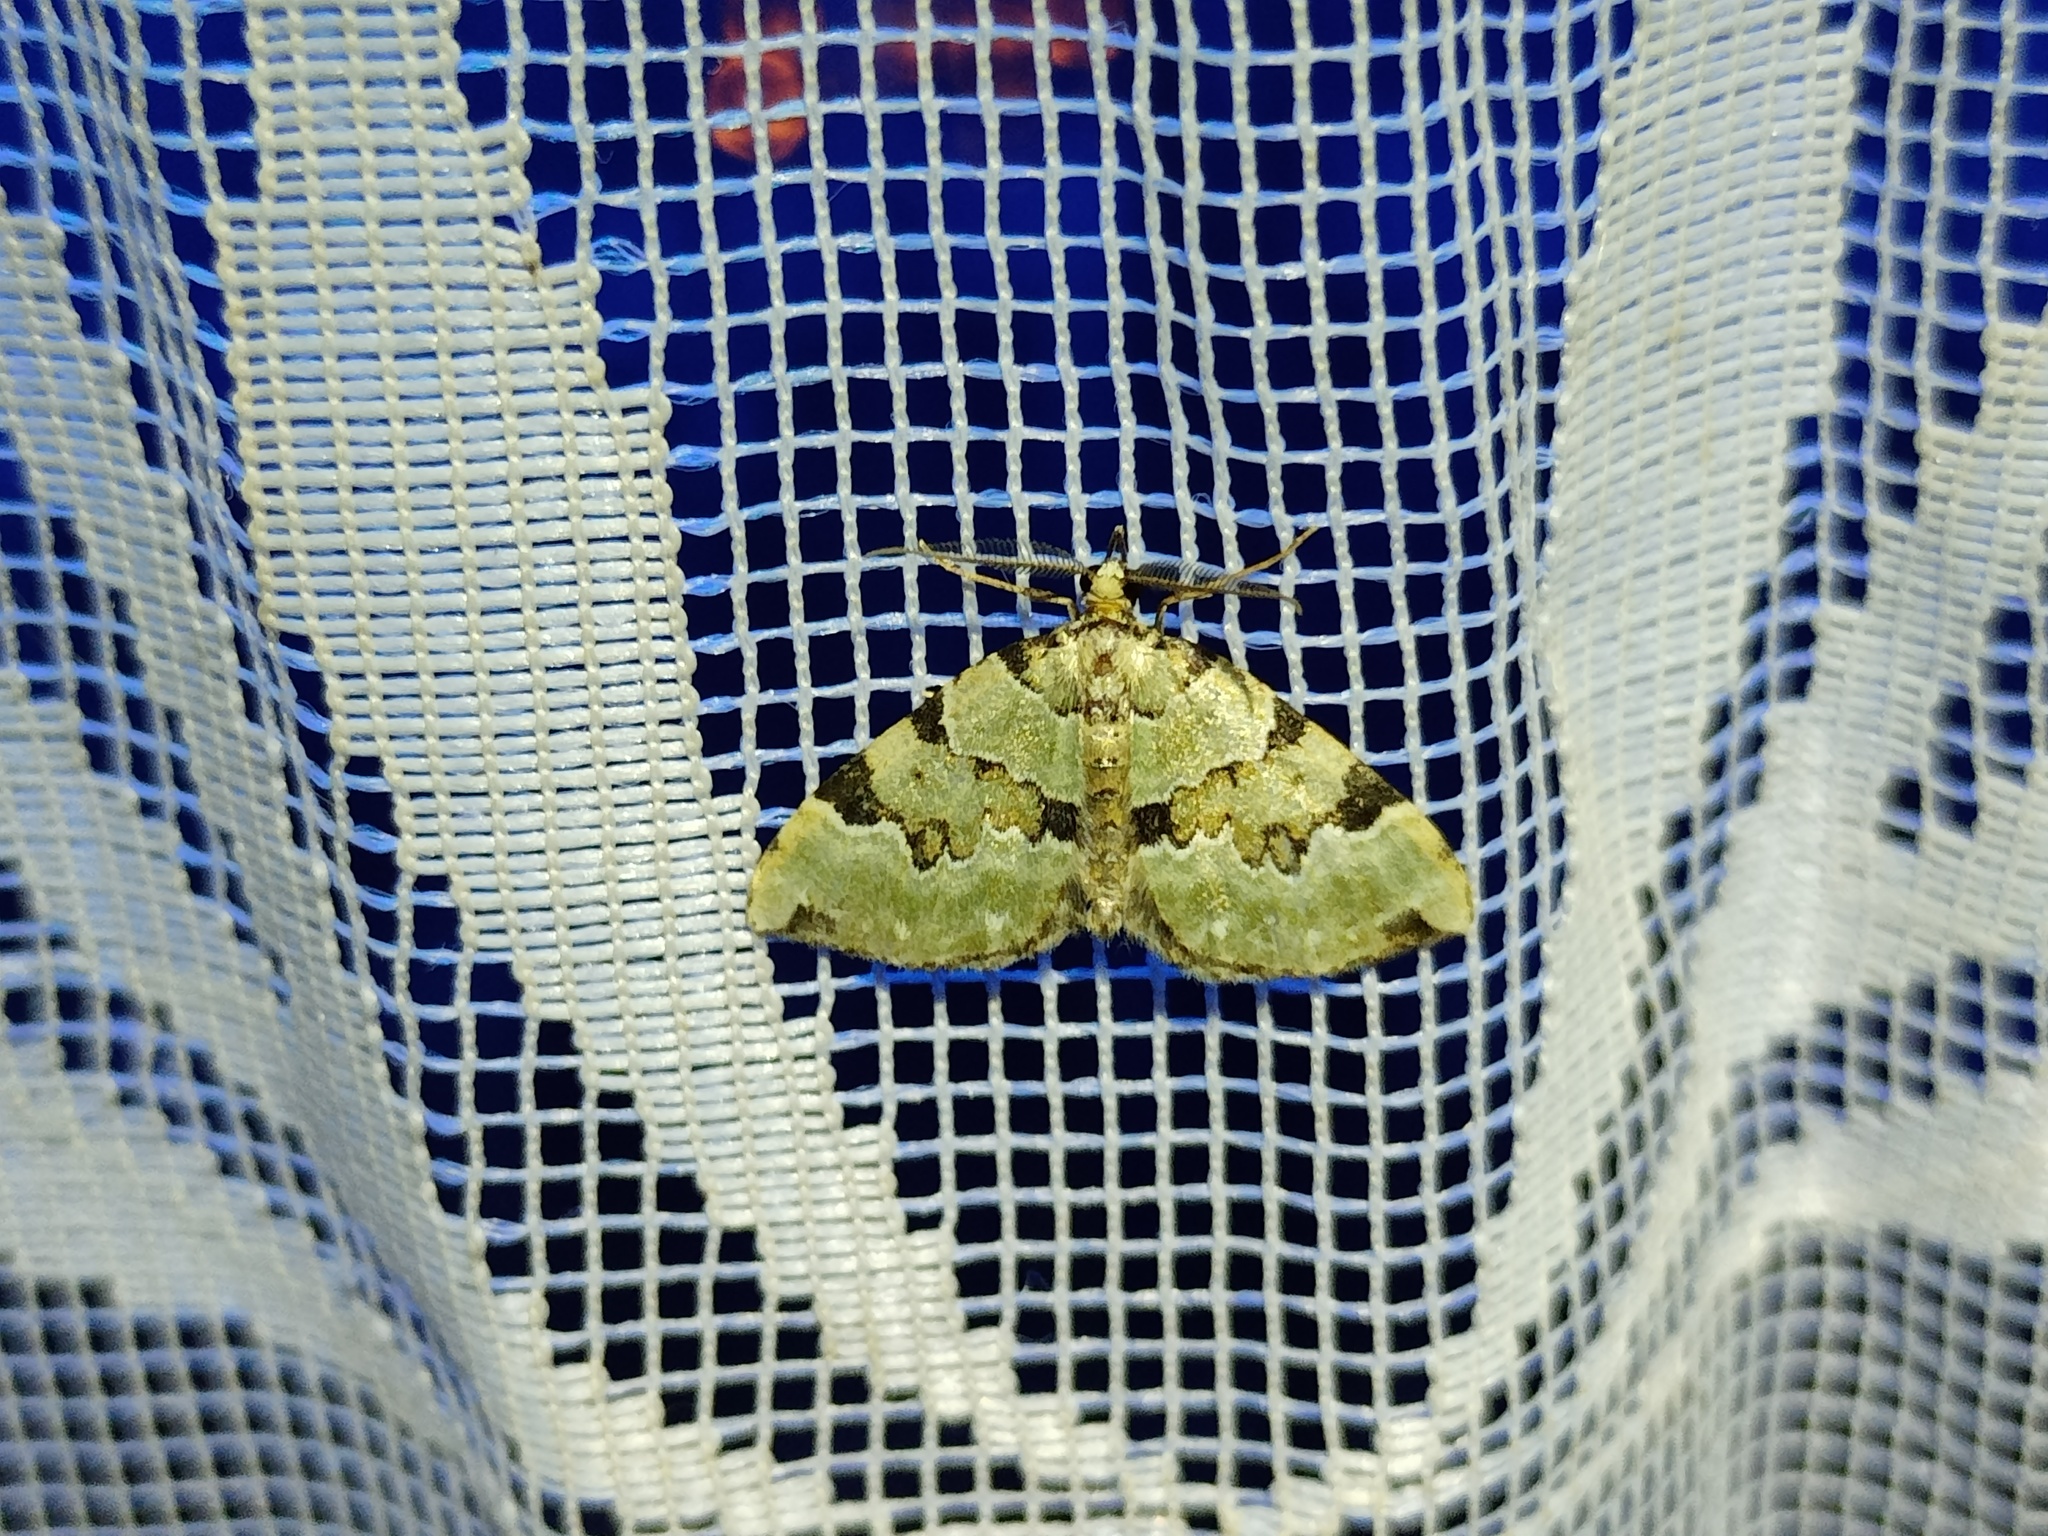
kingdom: Animalia
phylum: Arthropoda
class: Insecta
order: Lepidoptera
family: Geometridae
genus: Colostygia
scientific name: Colostygia pectinataria
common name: Green carpet
